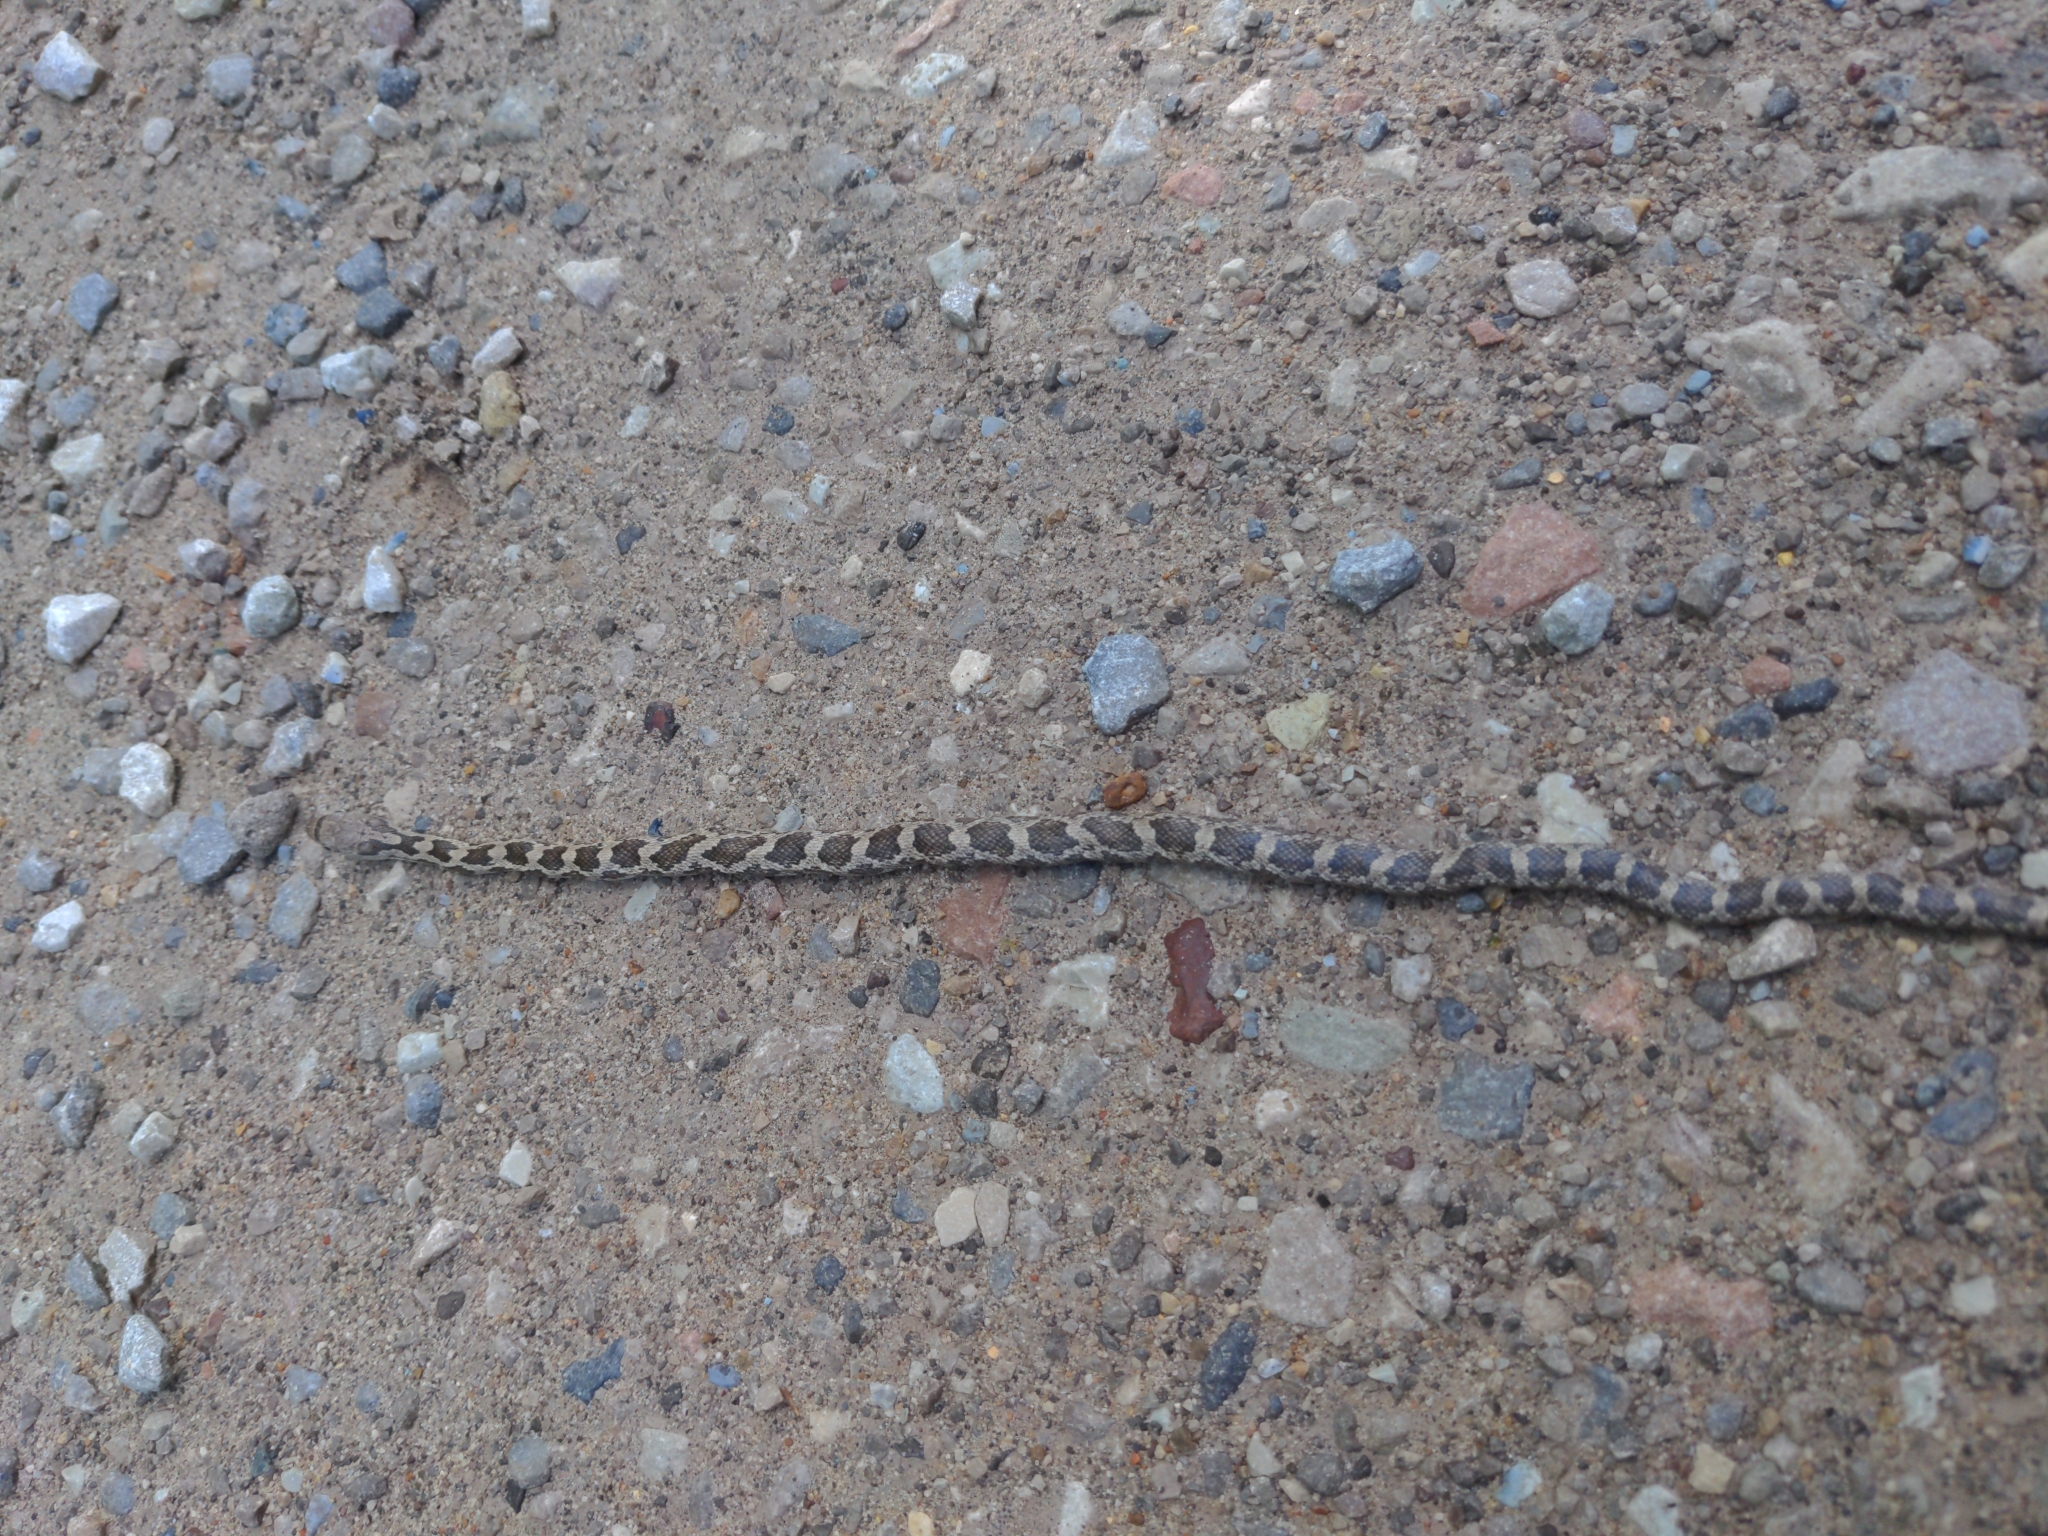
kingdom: Animalia
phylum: Chordata
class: Squamata
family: Colubridae
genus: Pantherophis
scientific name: Pantherophis spiloides
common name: Gray rat snake
